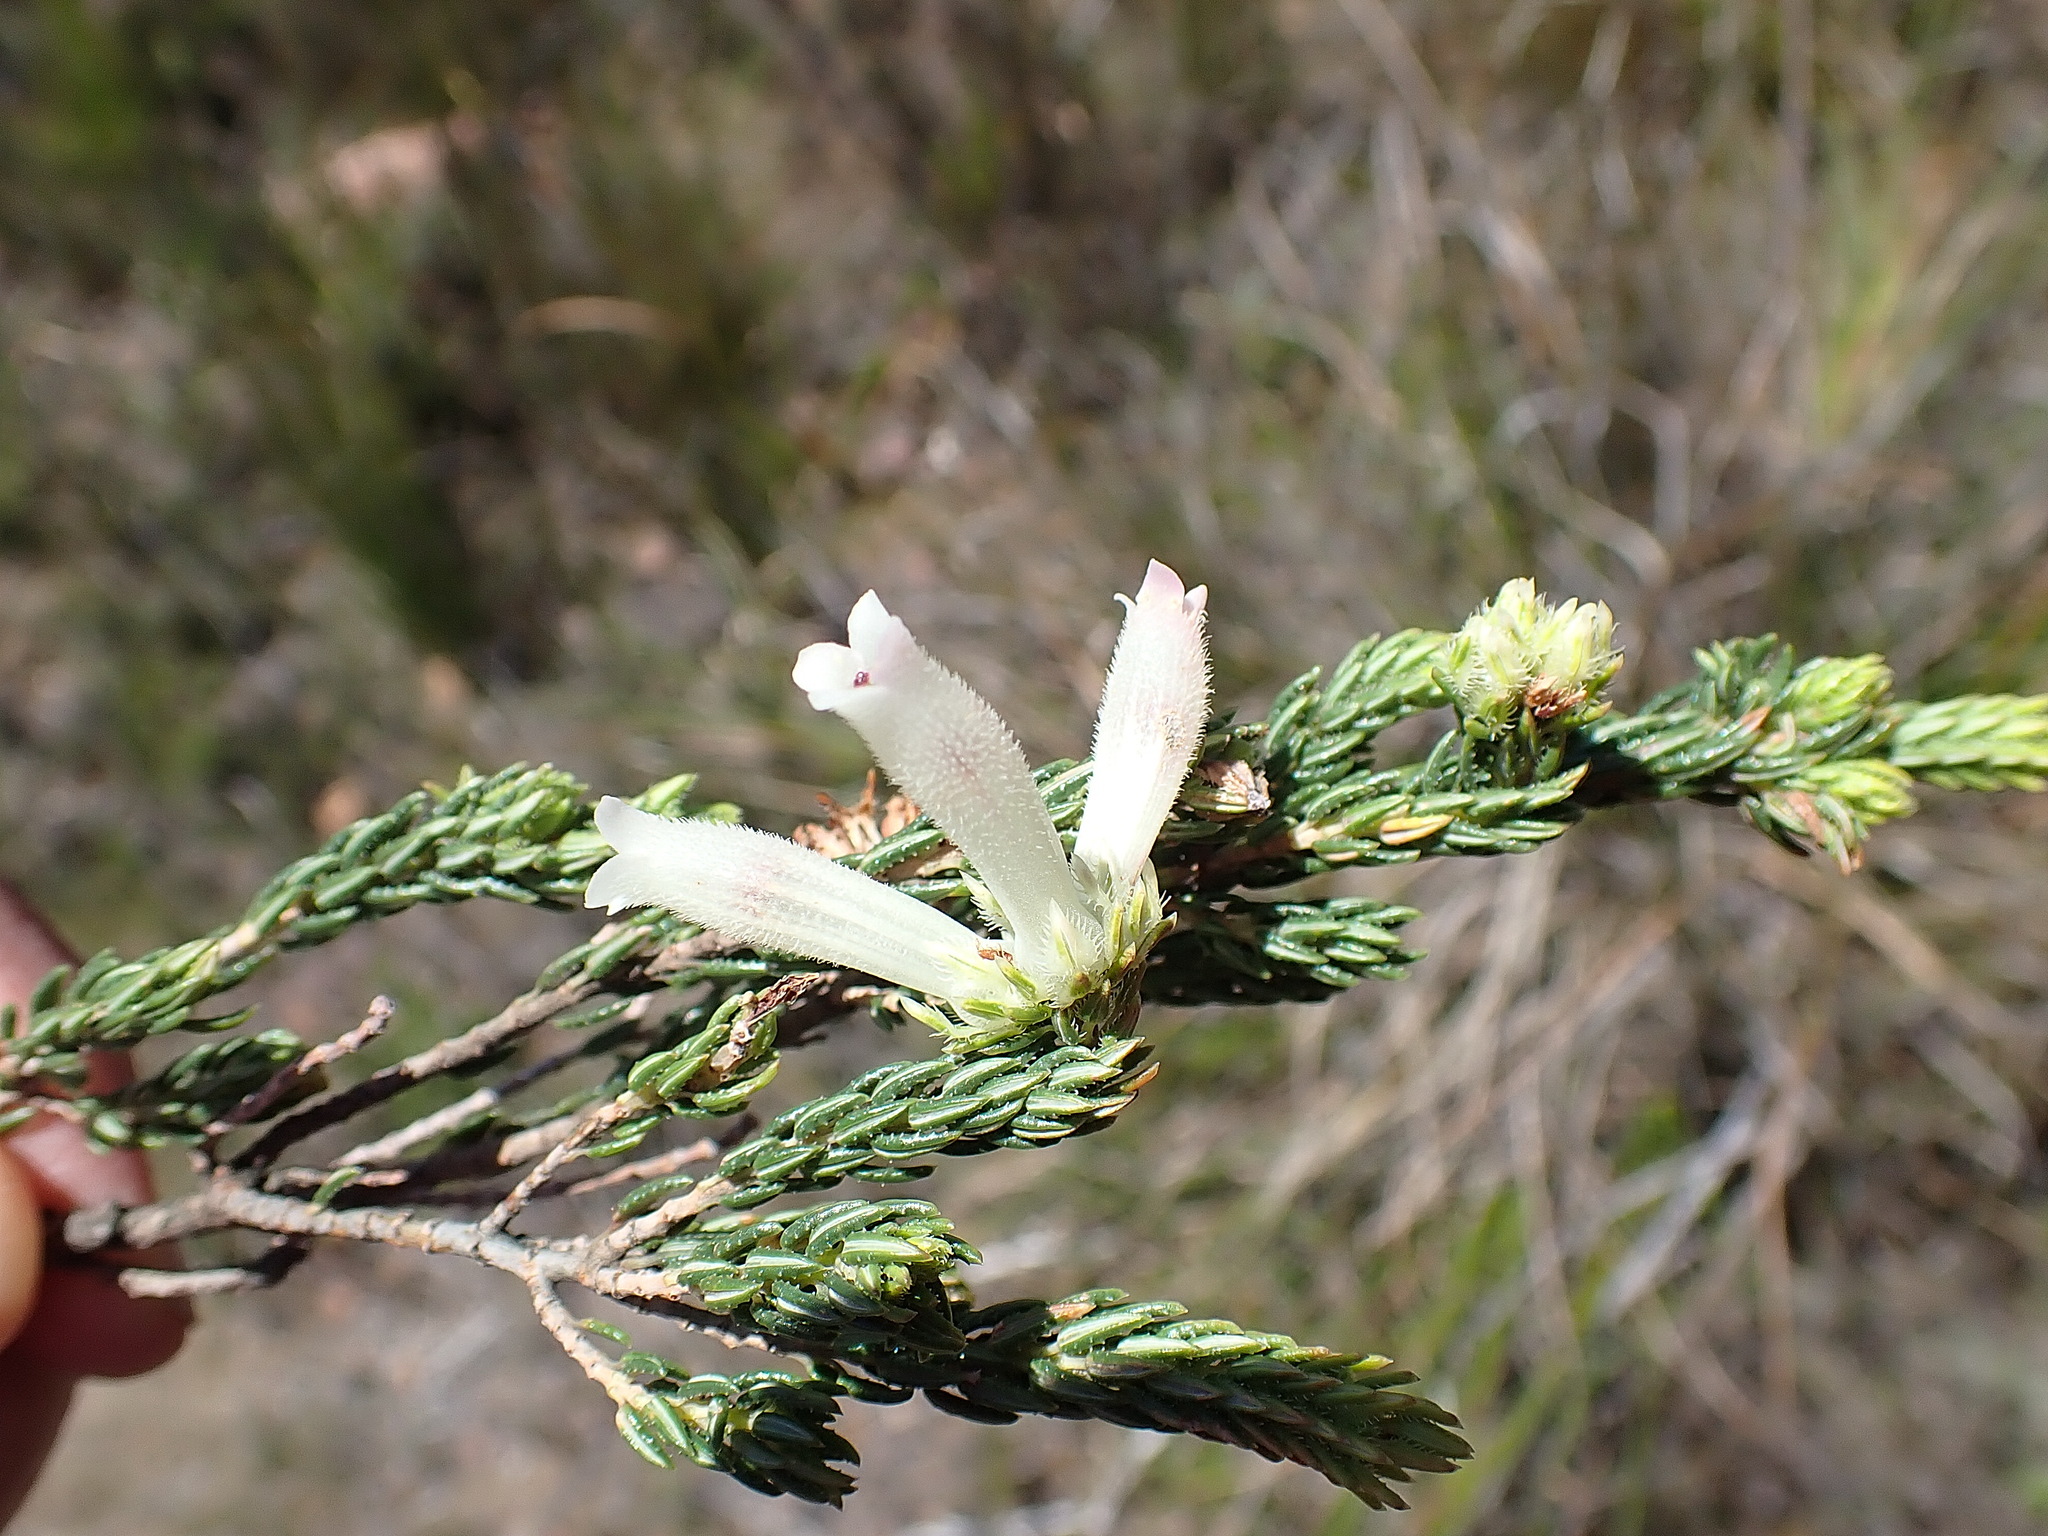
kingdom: Plantae
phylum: Tracheophyta
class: Magnoliopsida
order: Ericales
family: Ericaceae
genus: Erica
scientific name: Erica pectinifolia
